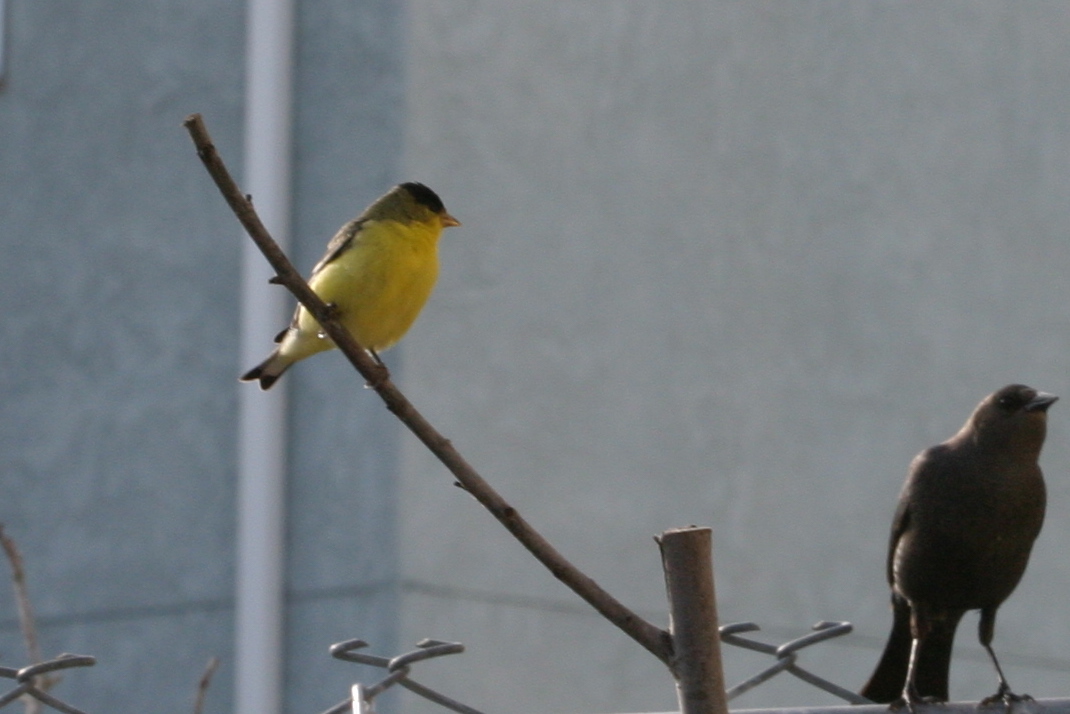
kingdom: Animalia
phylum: Chordata
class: Aves
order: Passeriformes
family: Fringillidae
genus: Spinus
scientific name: Spinus psaltria
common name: Lesser goldfinch
